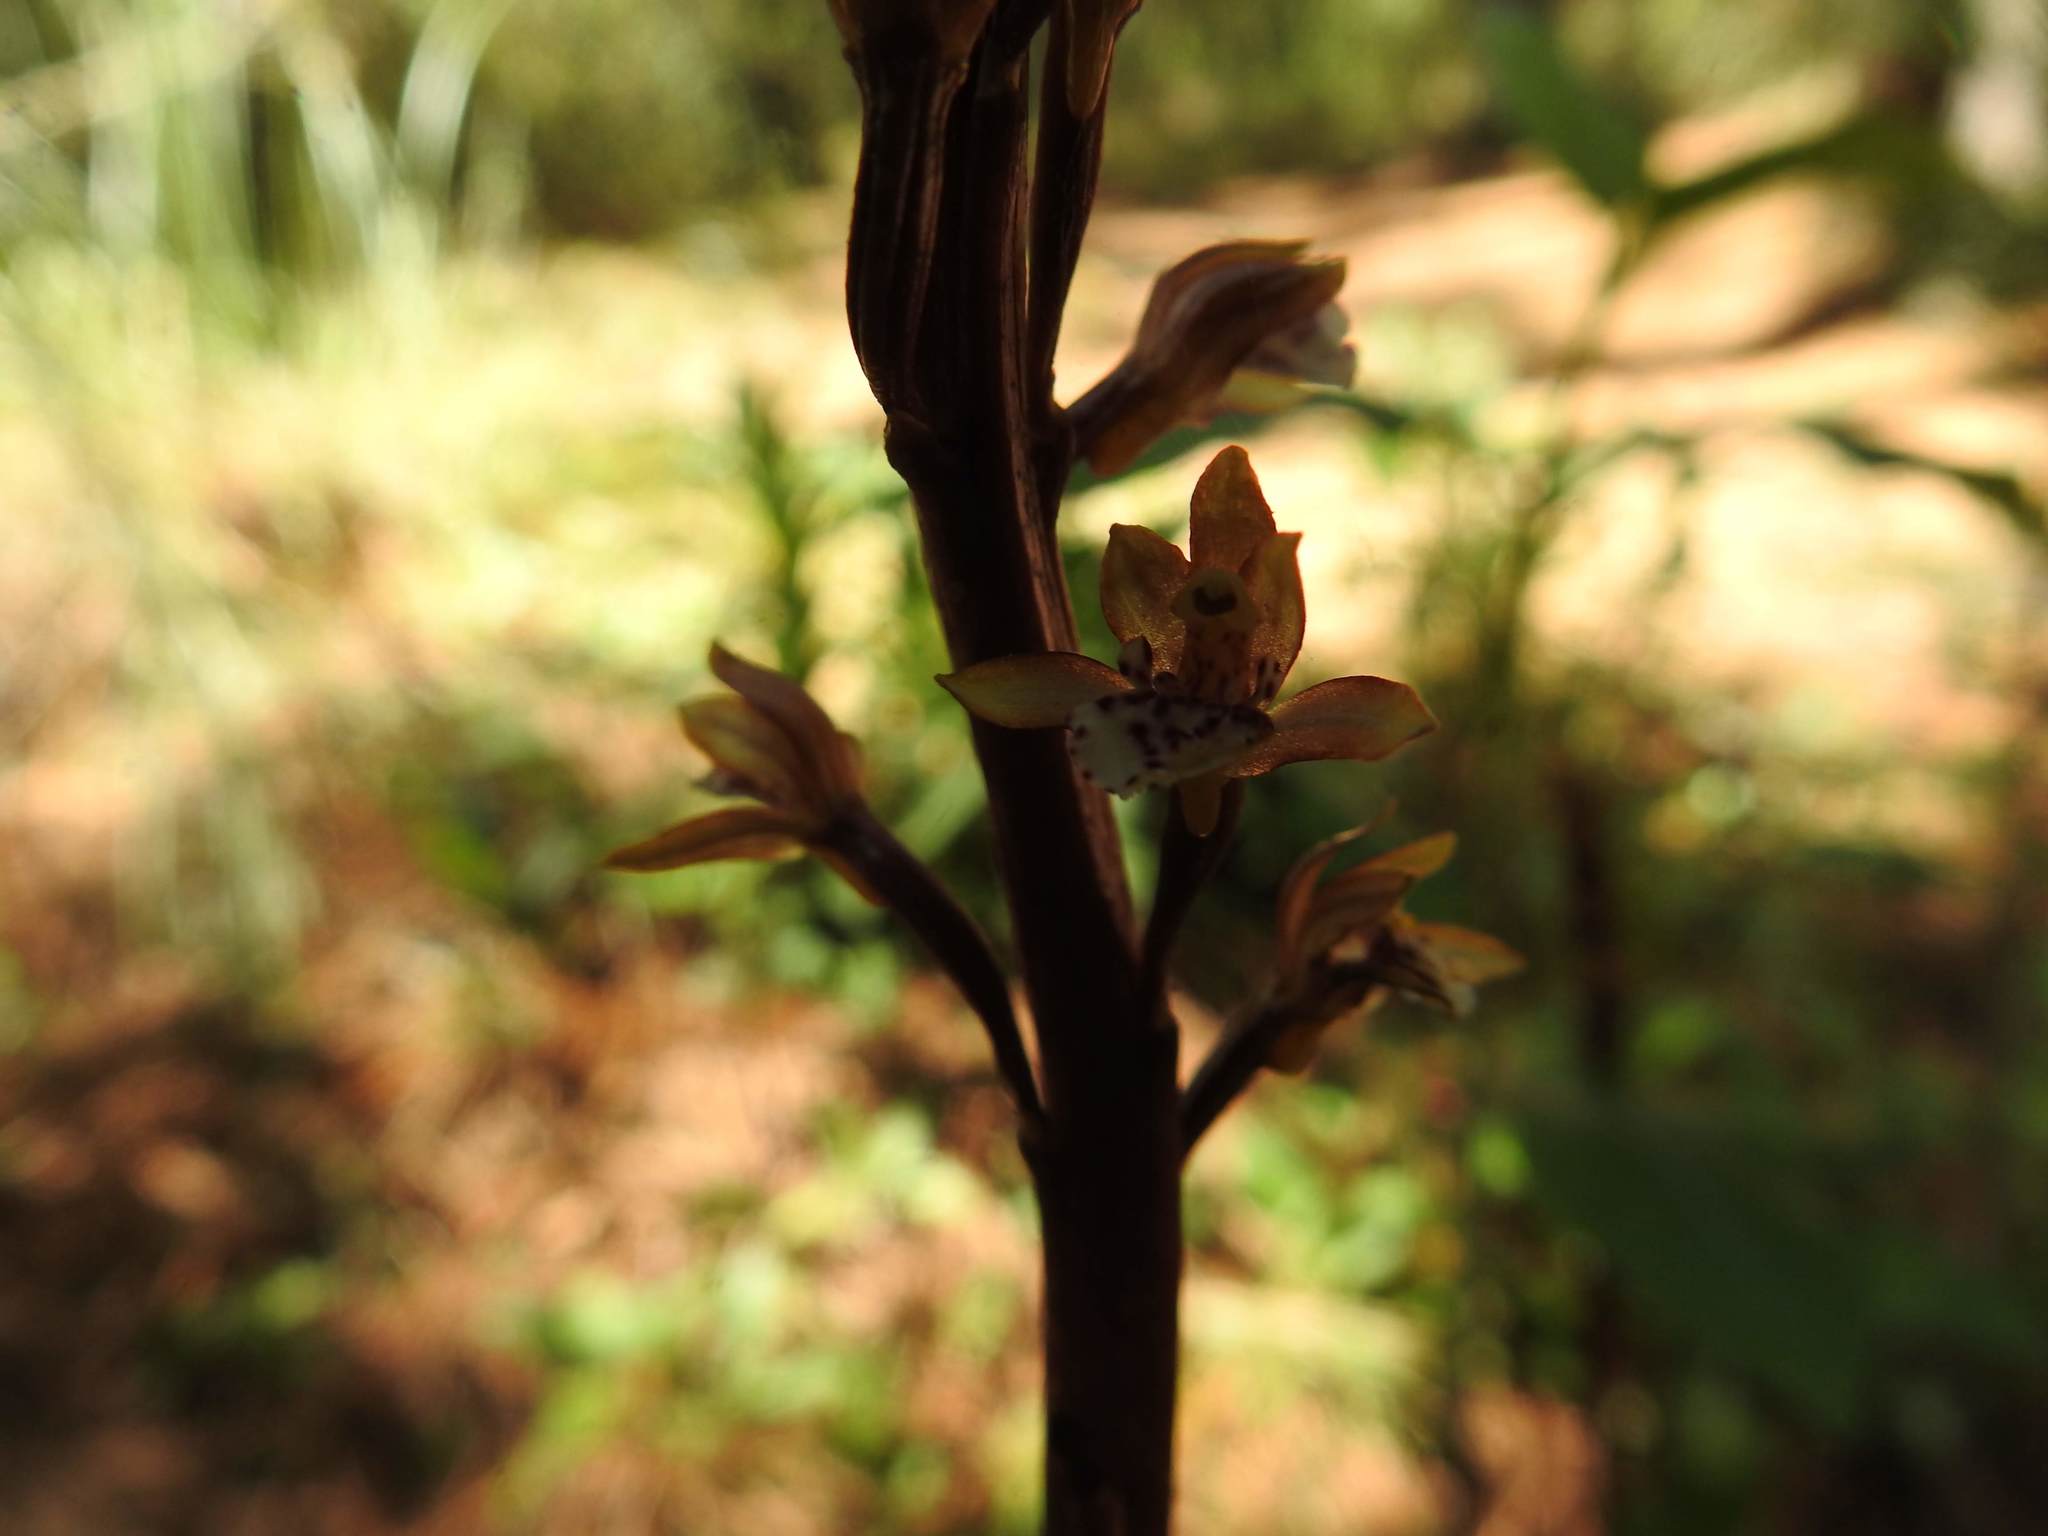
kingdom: Plantae
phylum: Tracheophyta
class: Liliopsida
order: Asparagales
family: Orchidaceae
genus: Corallorhiza
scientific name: Corallorhiza maculata
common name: Spotted coralroot
